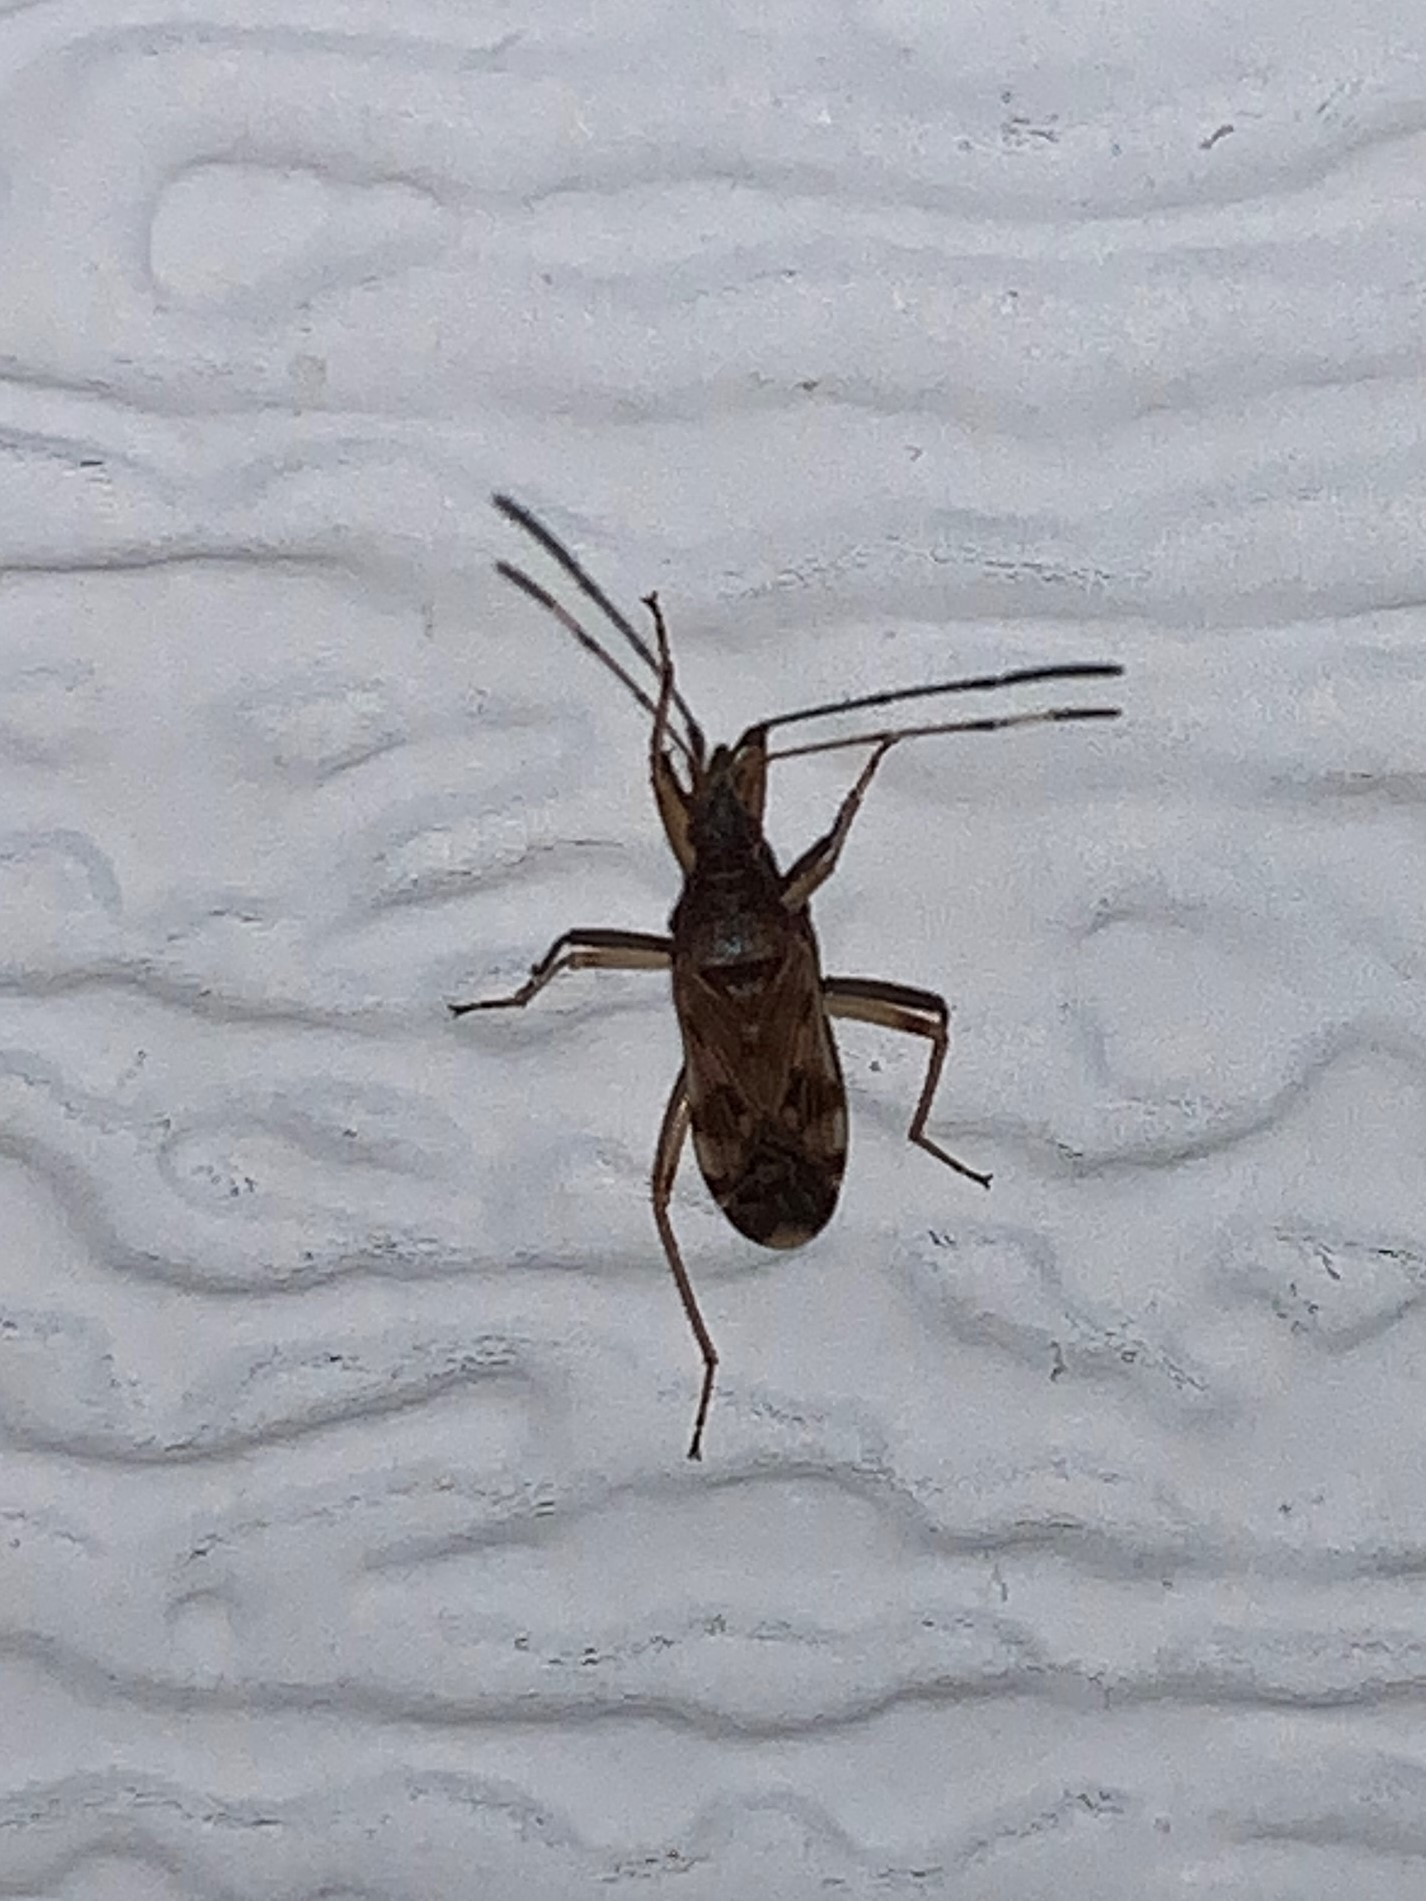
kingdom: Animalia
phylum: Arthropoda
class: Insecta
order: Hemiptera
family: Rhyparochromidae
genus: Ozophora
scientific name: Ozophora picturata
